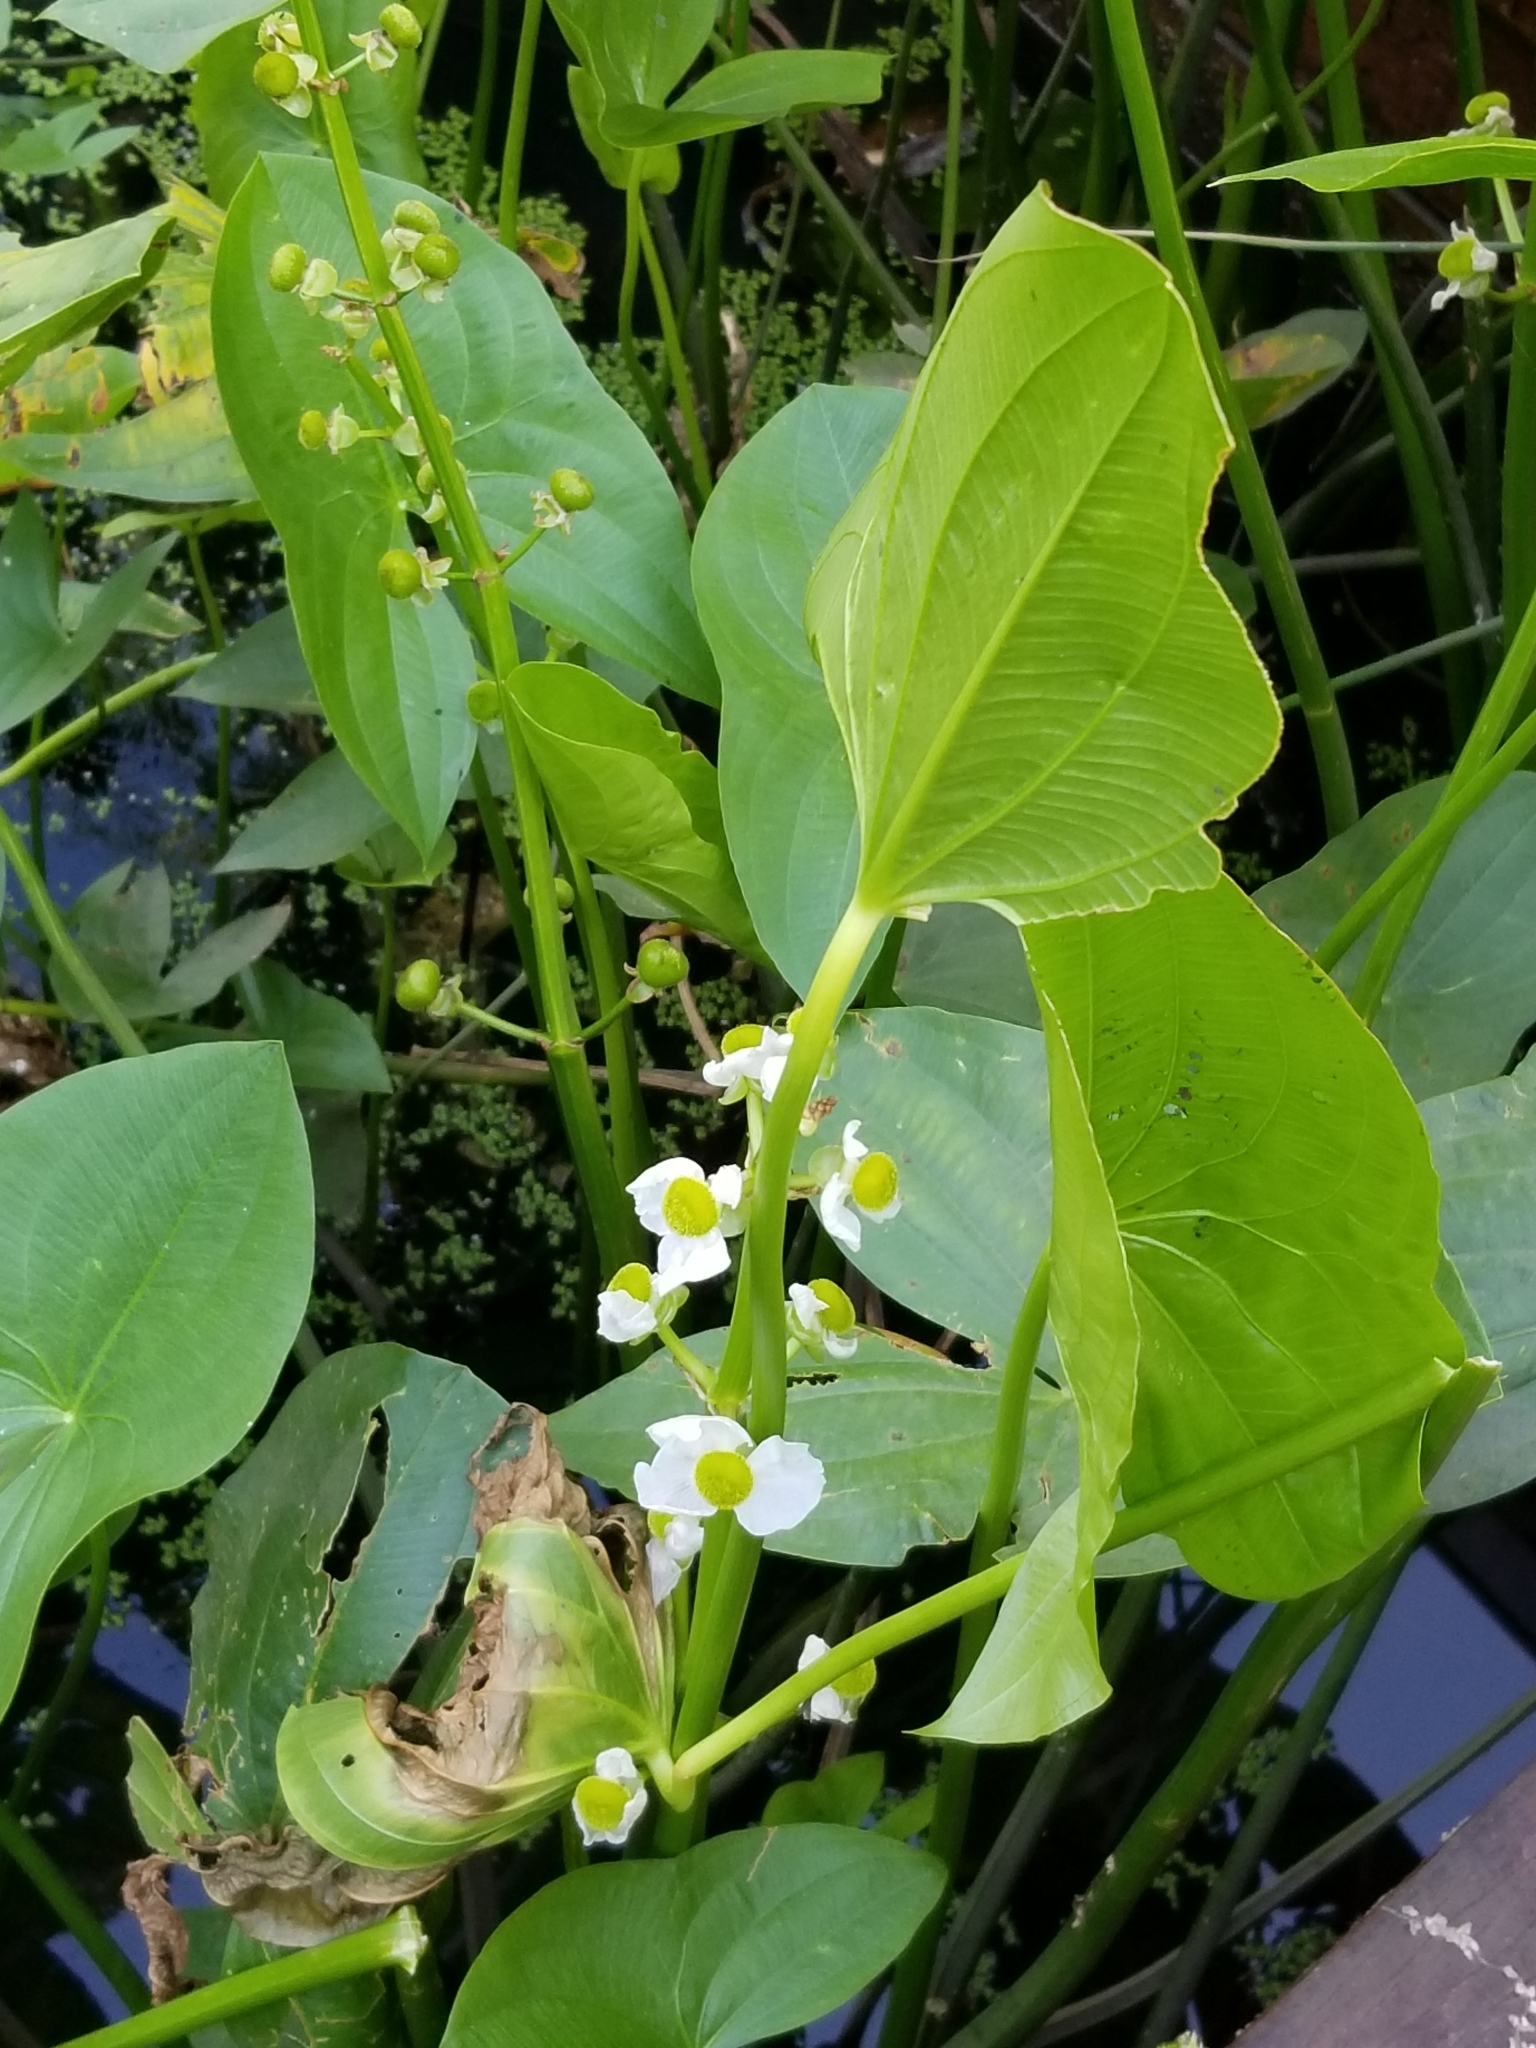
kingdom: Plantae
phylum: Tracheophyta
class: Liliopsida
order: Alismatales
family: Alismataceae
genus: Sagittaria
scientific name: Sagittaria latifolia
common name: Duck-potato
